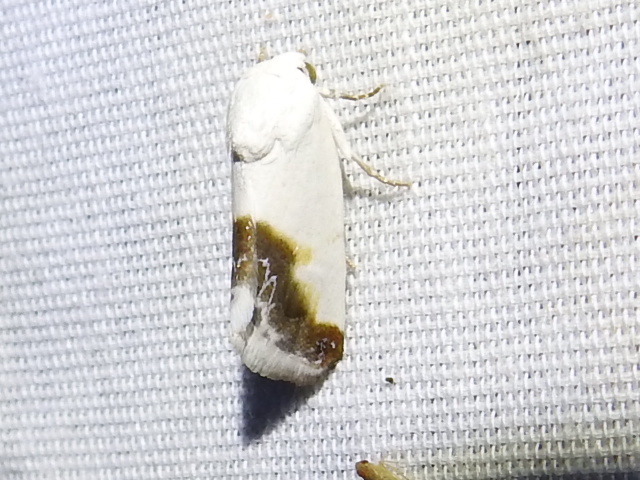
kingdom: Animalia
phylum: Arthropoda
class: Insecta
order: Lepidoptera
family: Noctuidae
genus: Acontia
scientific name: Acontia cretata
